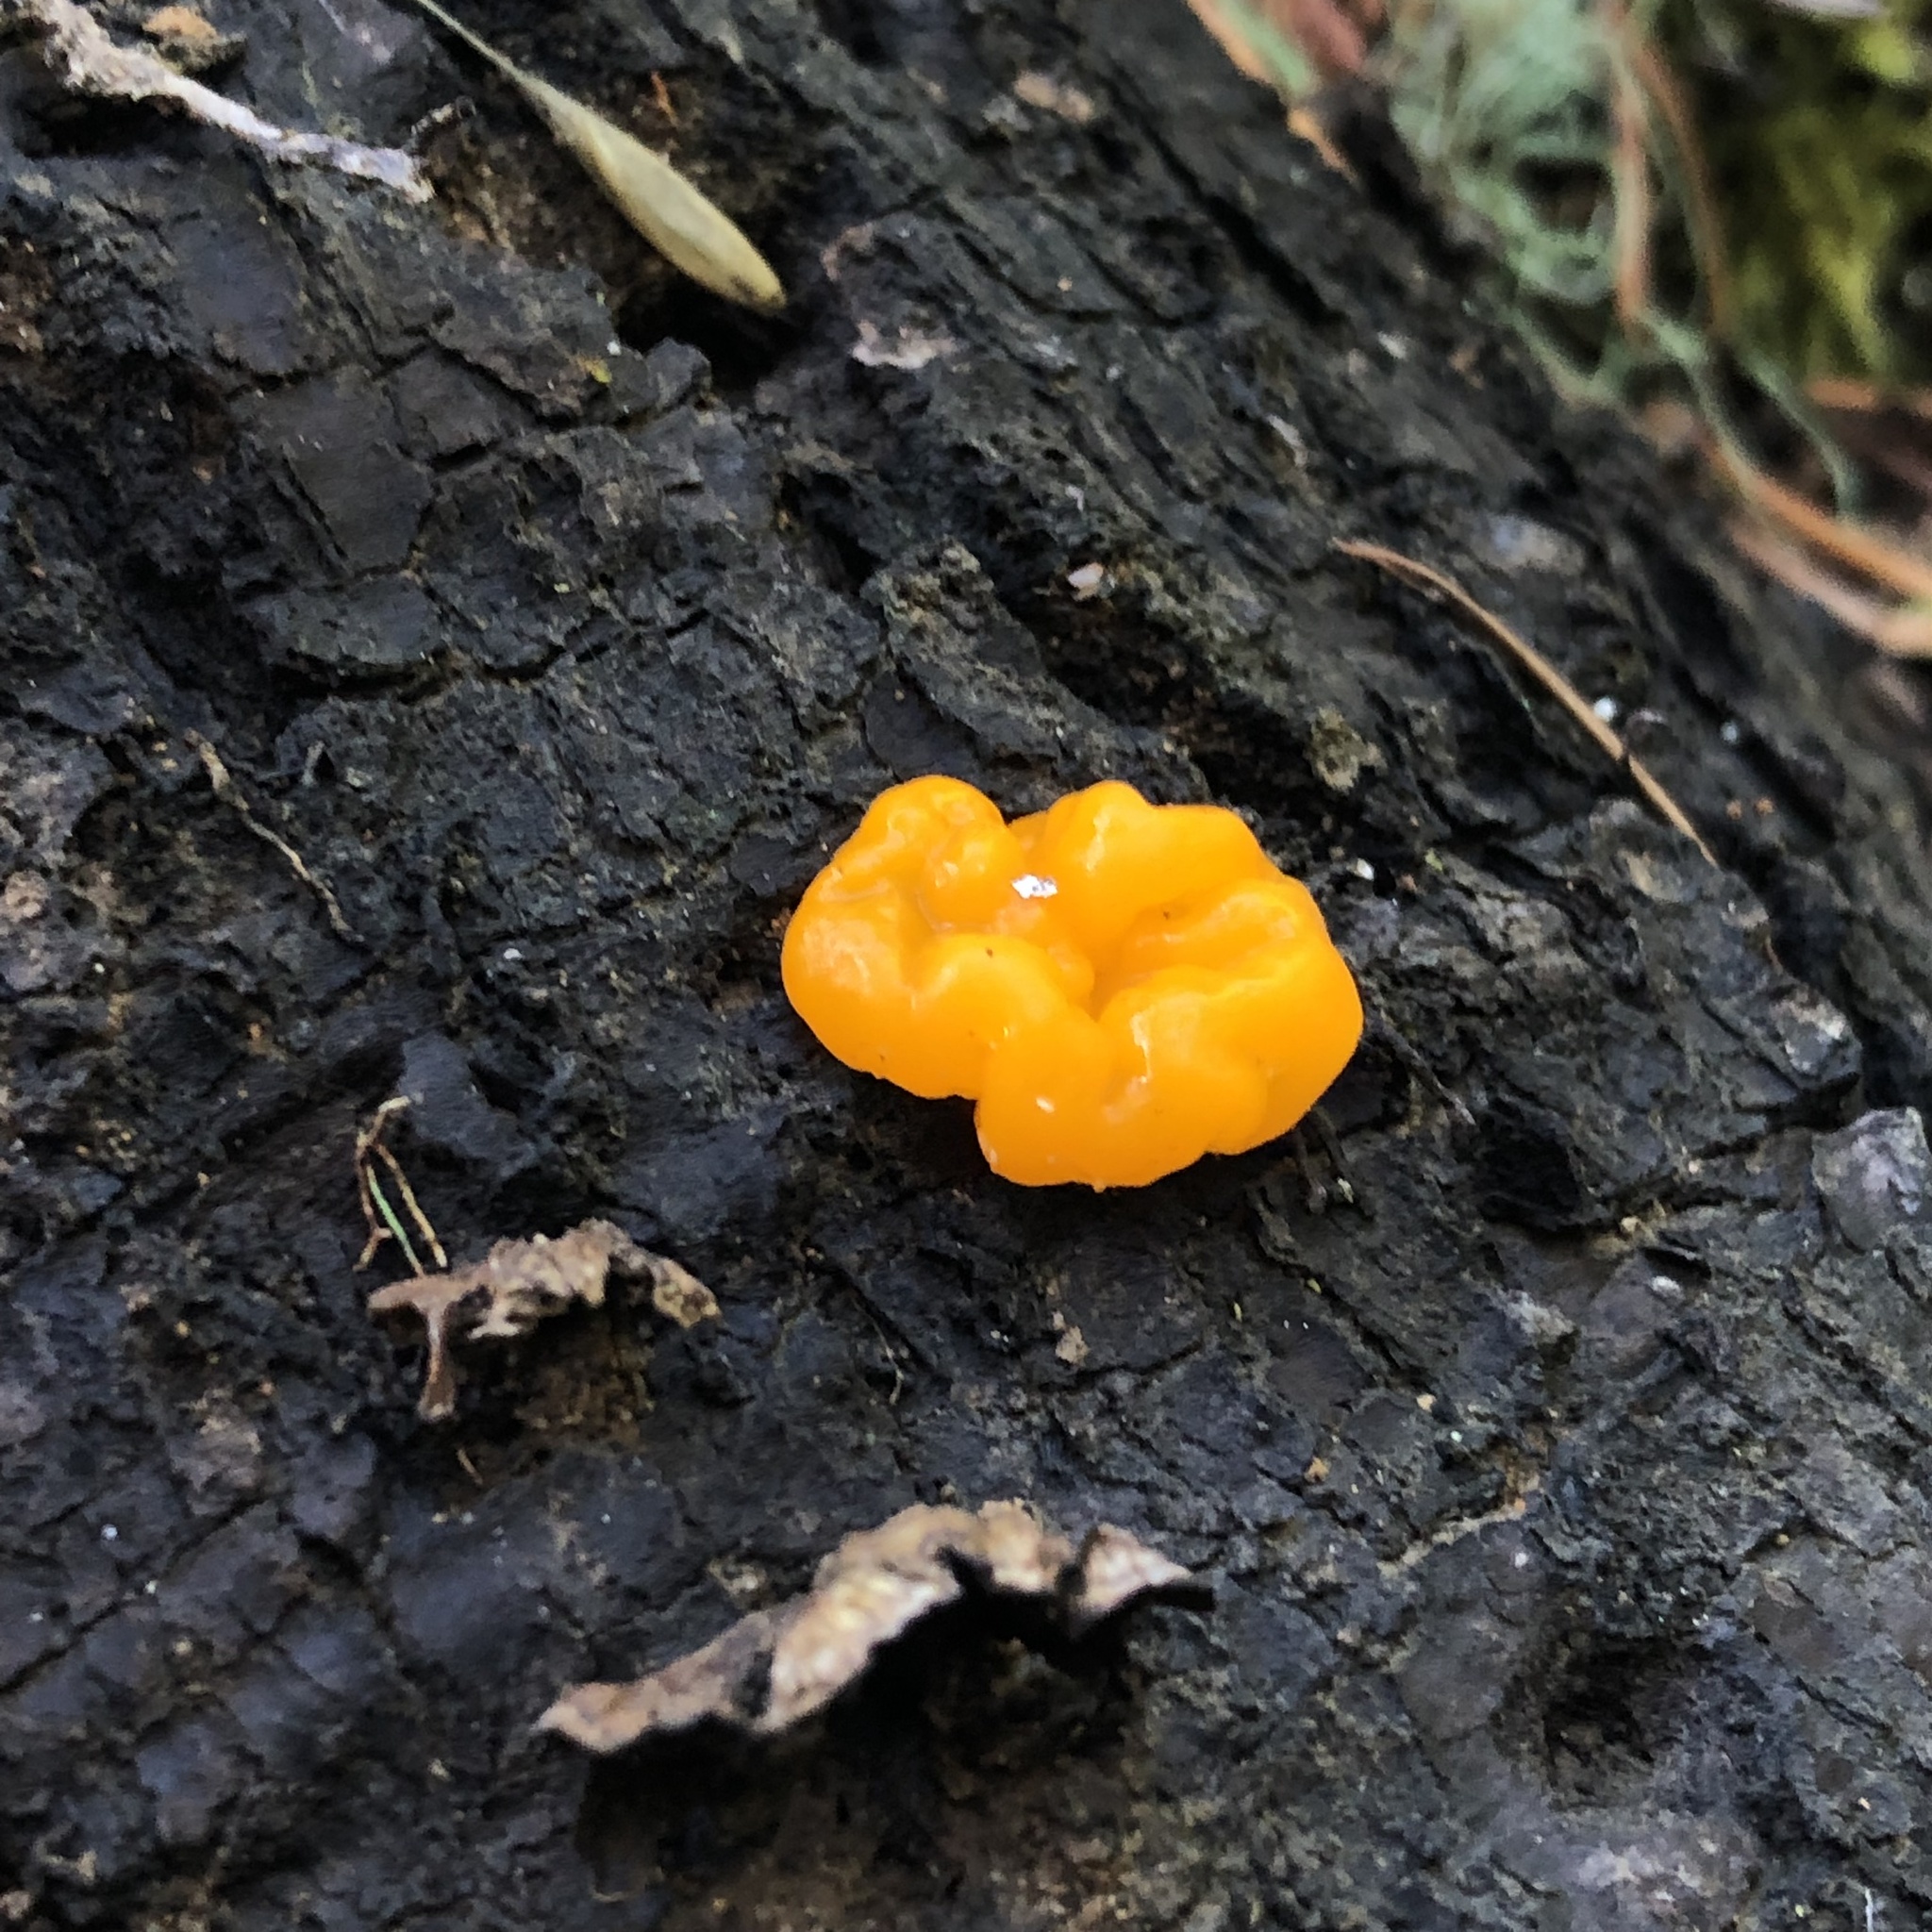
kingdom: Fungi
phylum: Basidiomycota
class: Dacrymycetes
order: Dacrymycetales
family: Dacrymycetaceae
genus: Dacrymyces
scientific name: Dacrymyces chrysospermus
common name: Orange jelly spot
